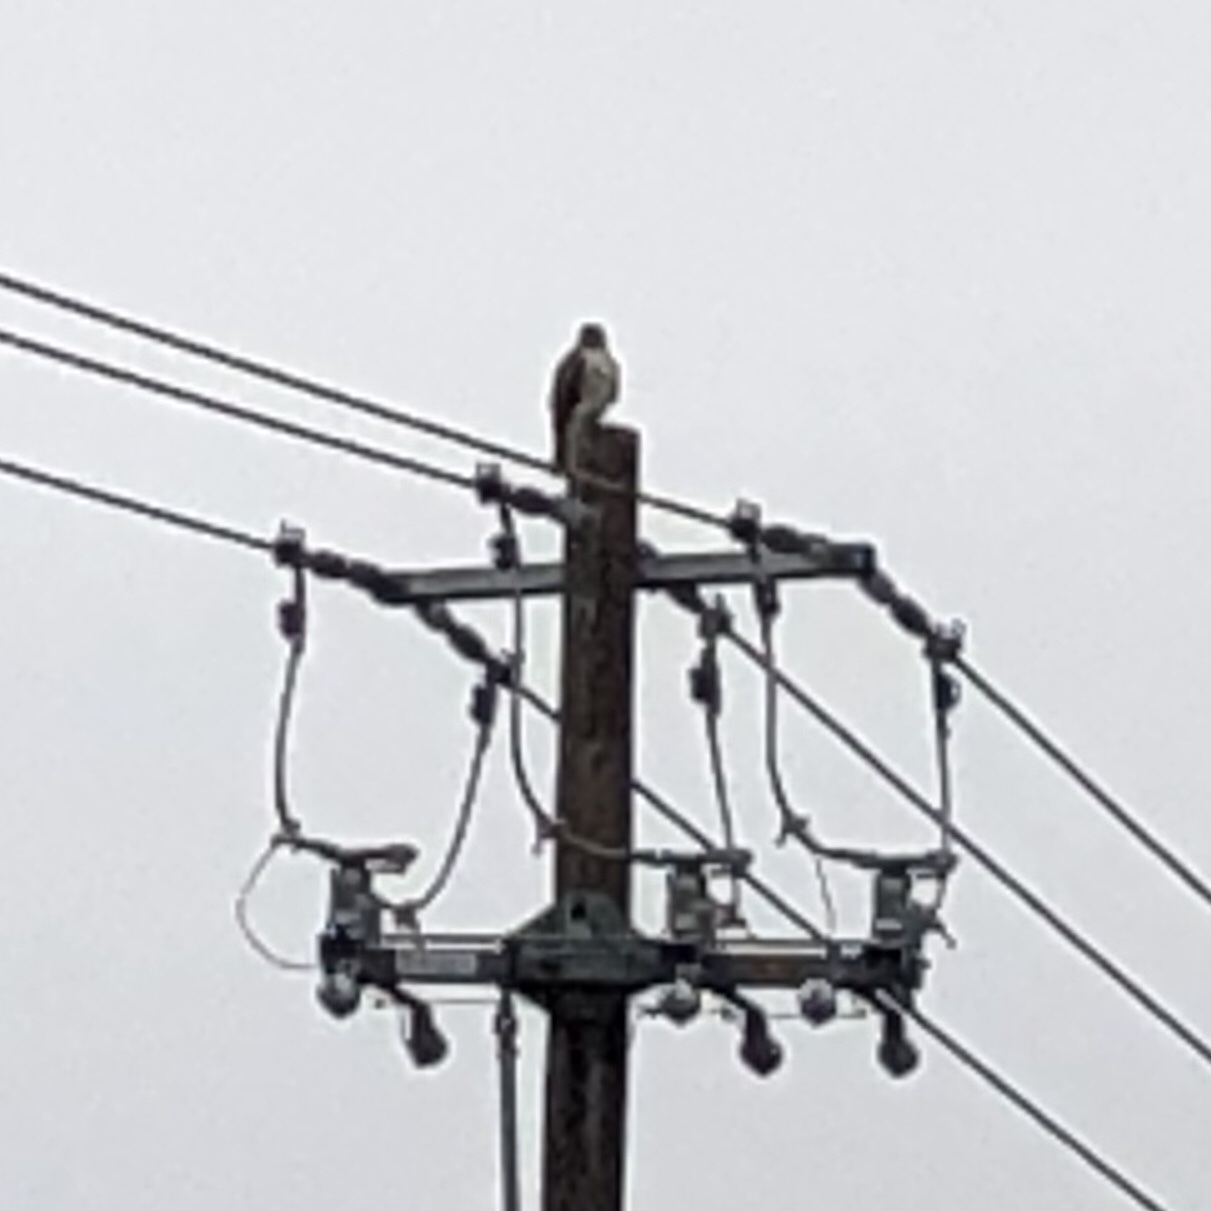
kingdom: Animalia
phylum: Chordata
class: Aves
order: Accipitriformes
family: Accipitridae
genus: Buteo
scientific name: Buteo jamaicensis
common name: Red-tailed hawk
